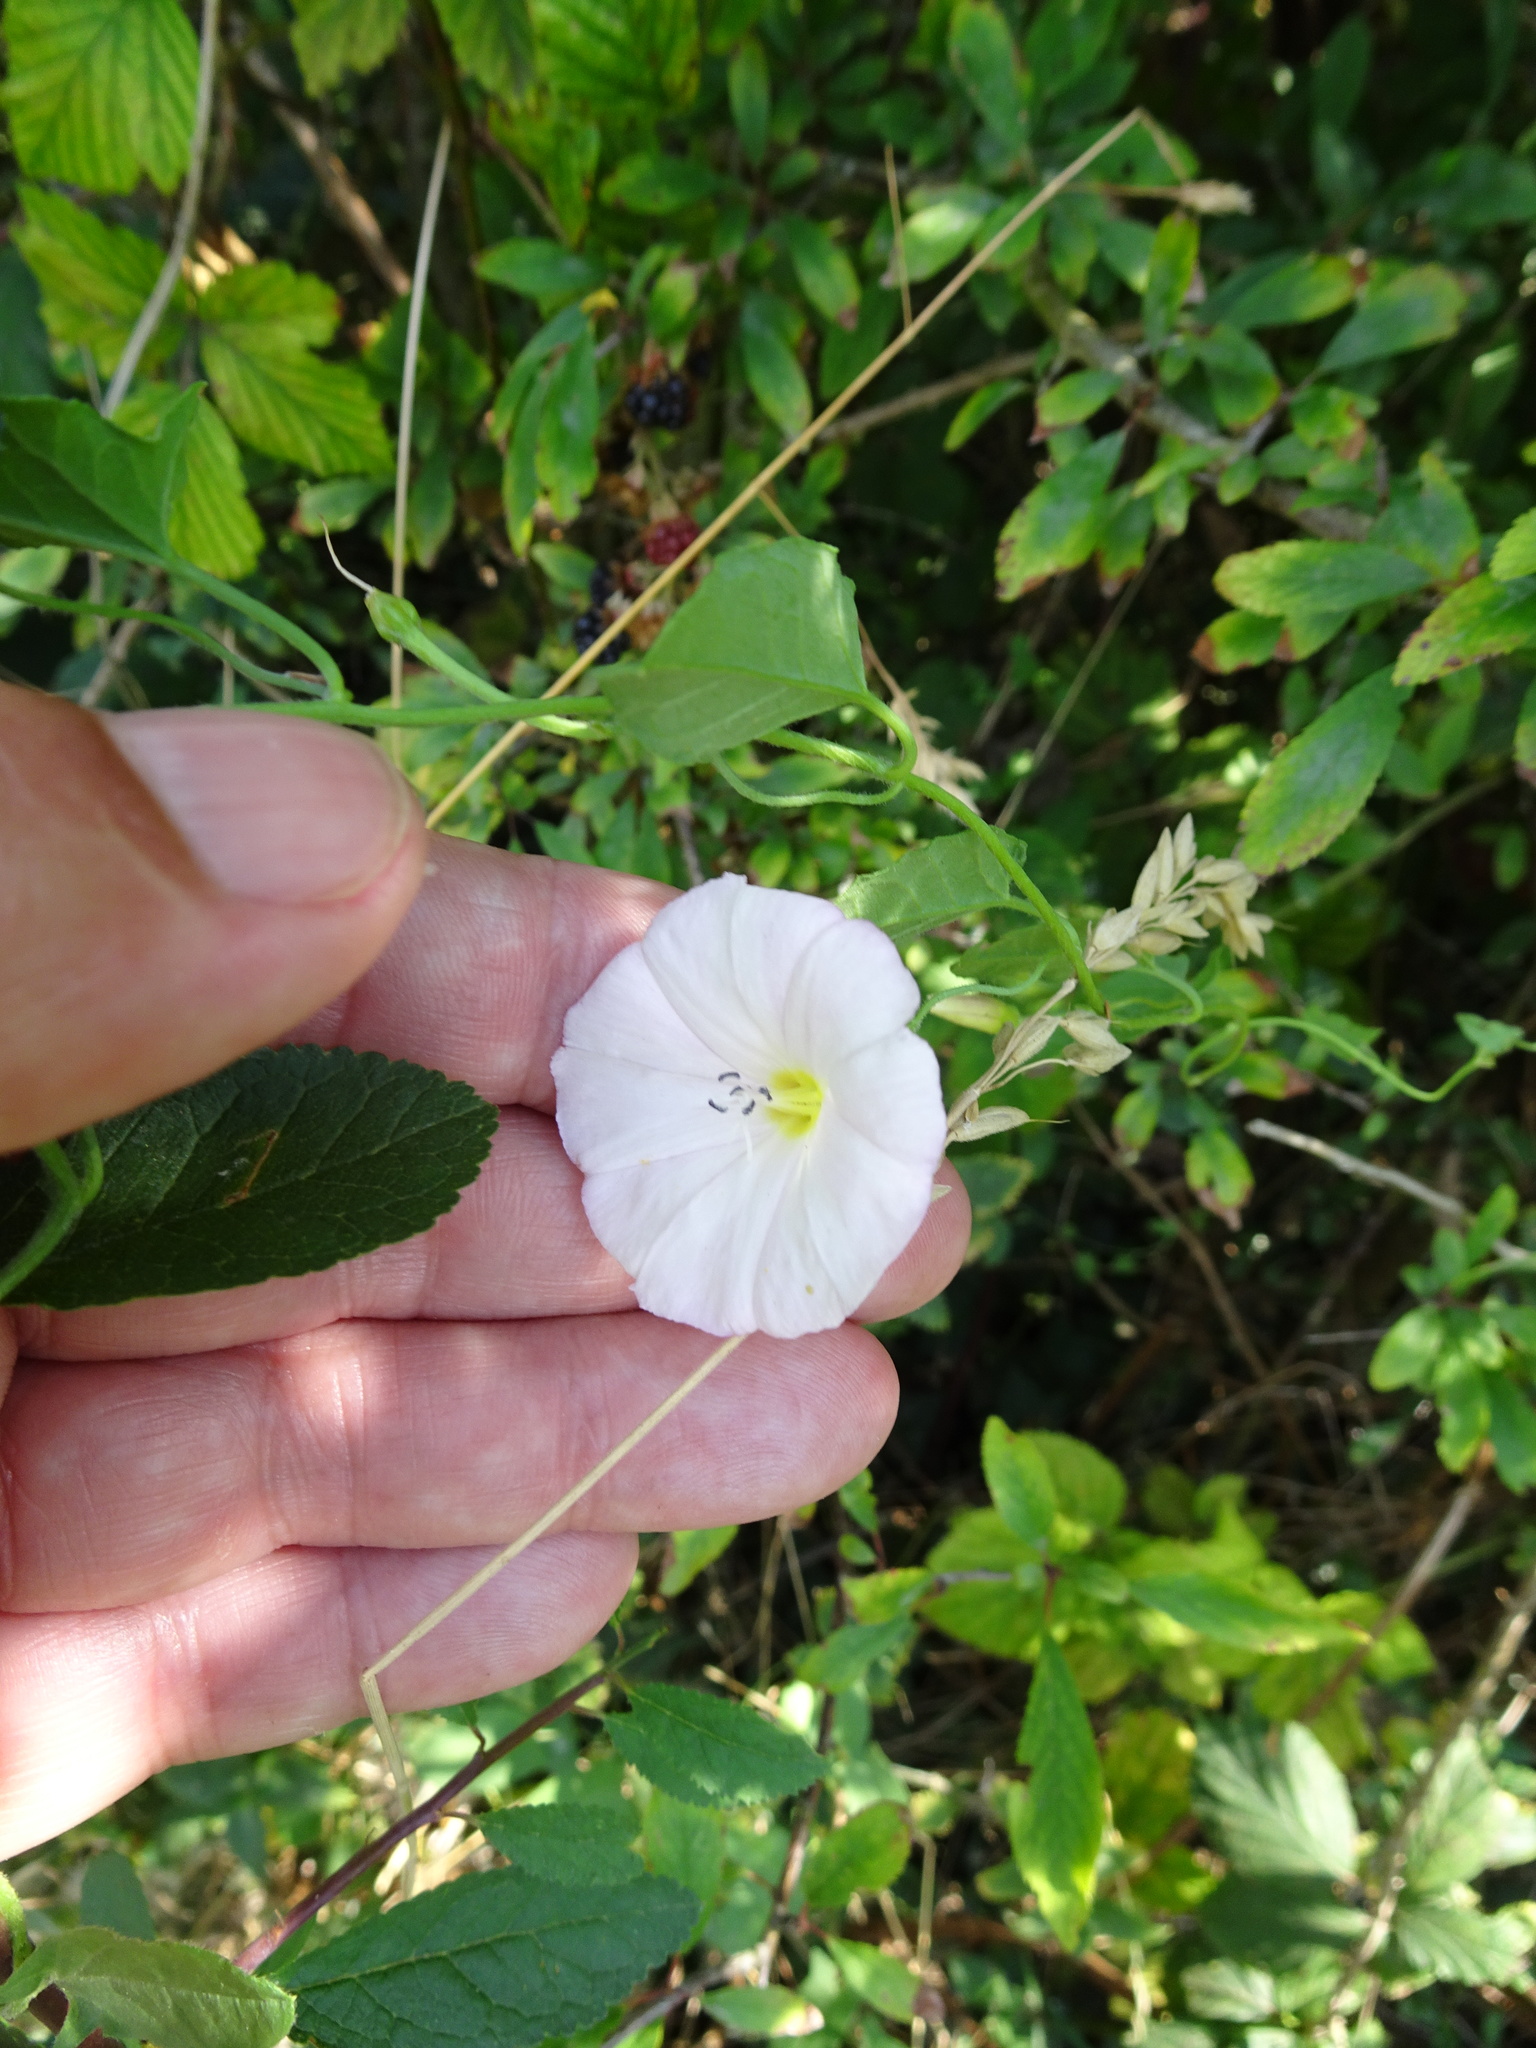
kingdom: Plantae
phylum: Tracheophyta
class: Magnoliopsida
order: Solanales
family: Convolvulaceae
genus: Convolvulus
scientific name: Convolvulus arvensis
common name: Field bindweed
